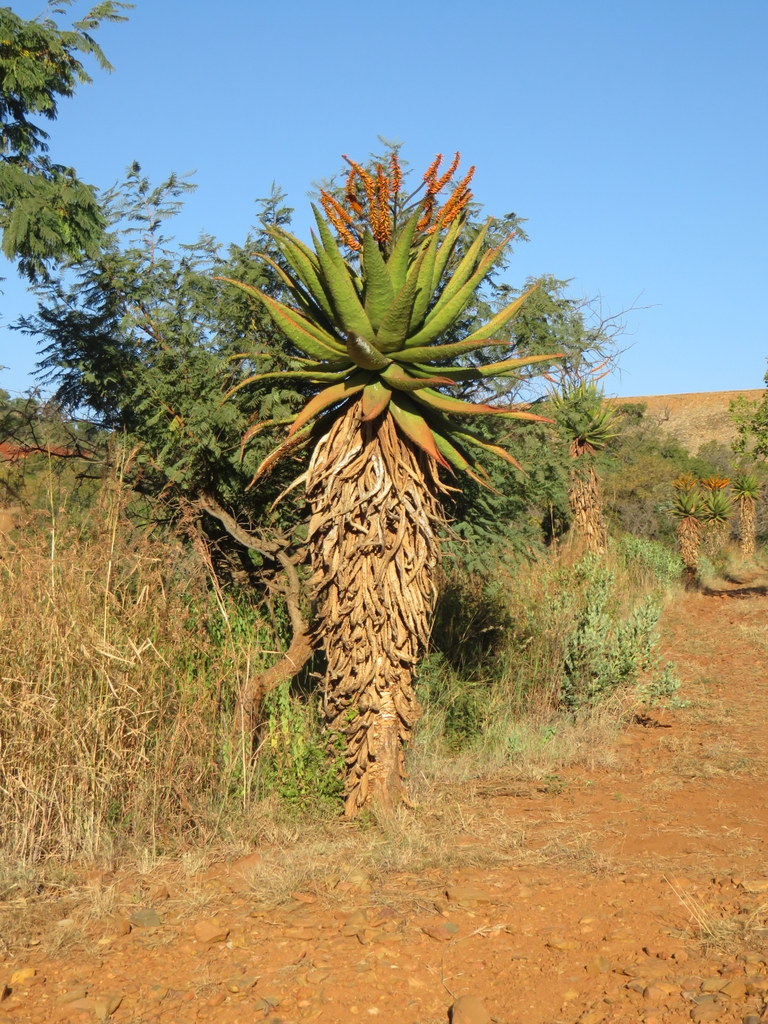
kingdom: Plantae
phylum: Tracheophyta
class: Liliopsida
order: Asparagales
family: Asphodelaceae
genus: Aloe
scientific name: Aloe marlothii
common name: Flat-flowered aloe
